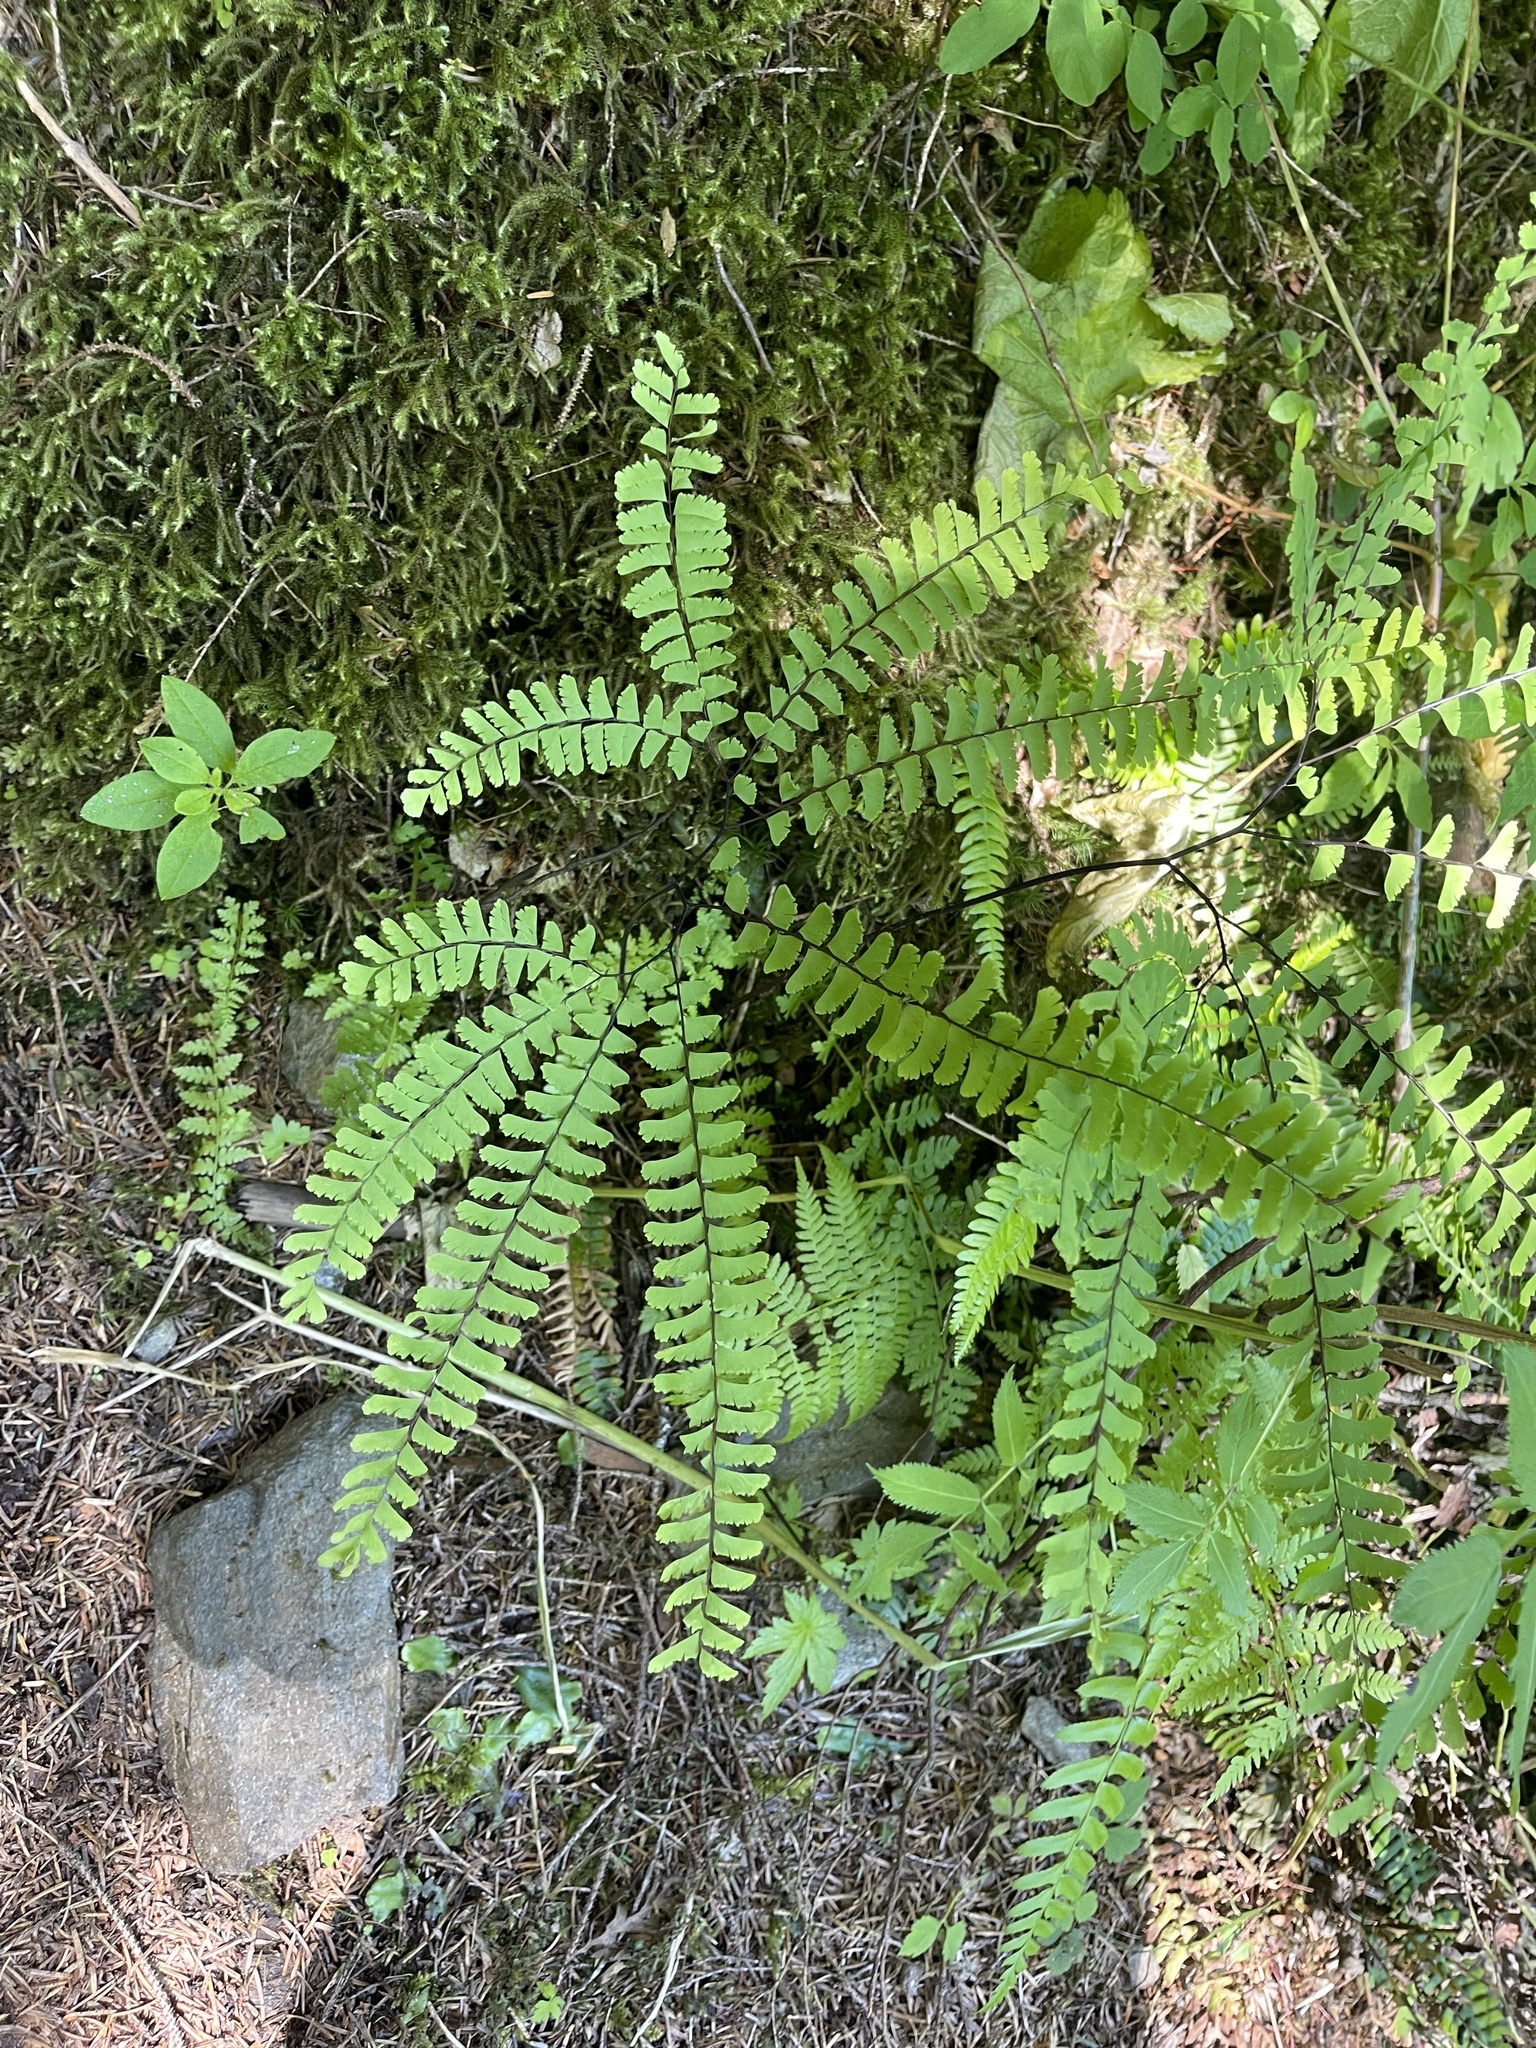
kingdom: Plantae
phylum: Tracheophyta
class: Polypodiopsida
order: Polypodiales
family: Pteridaceae
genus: Adiantum
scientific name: Adiantum aleuticum
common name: Aleutian maidenhair fern
